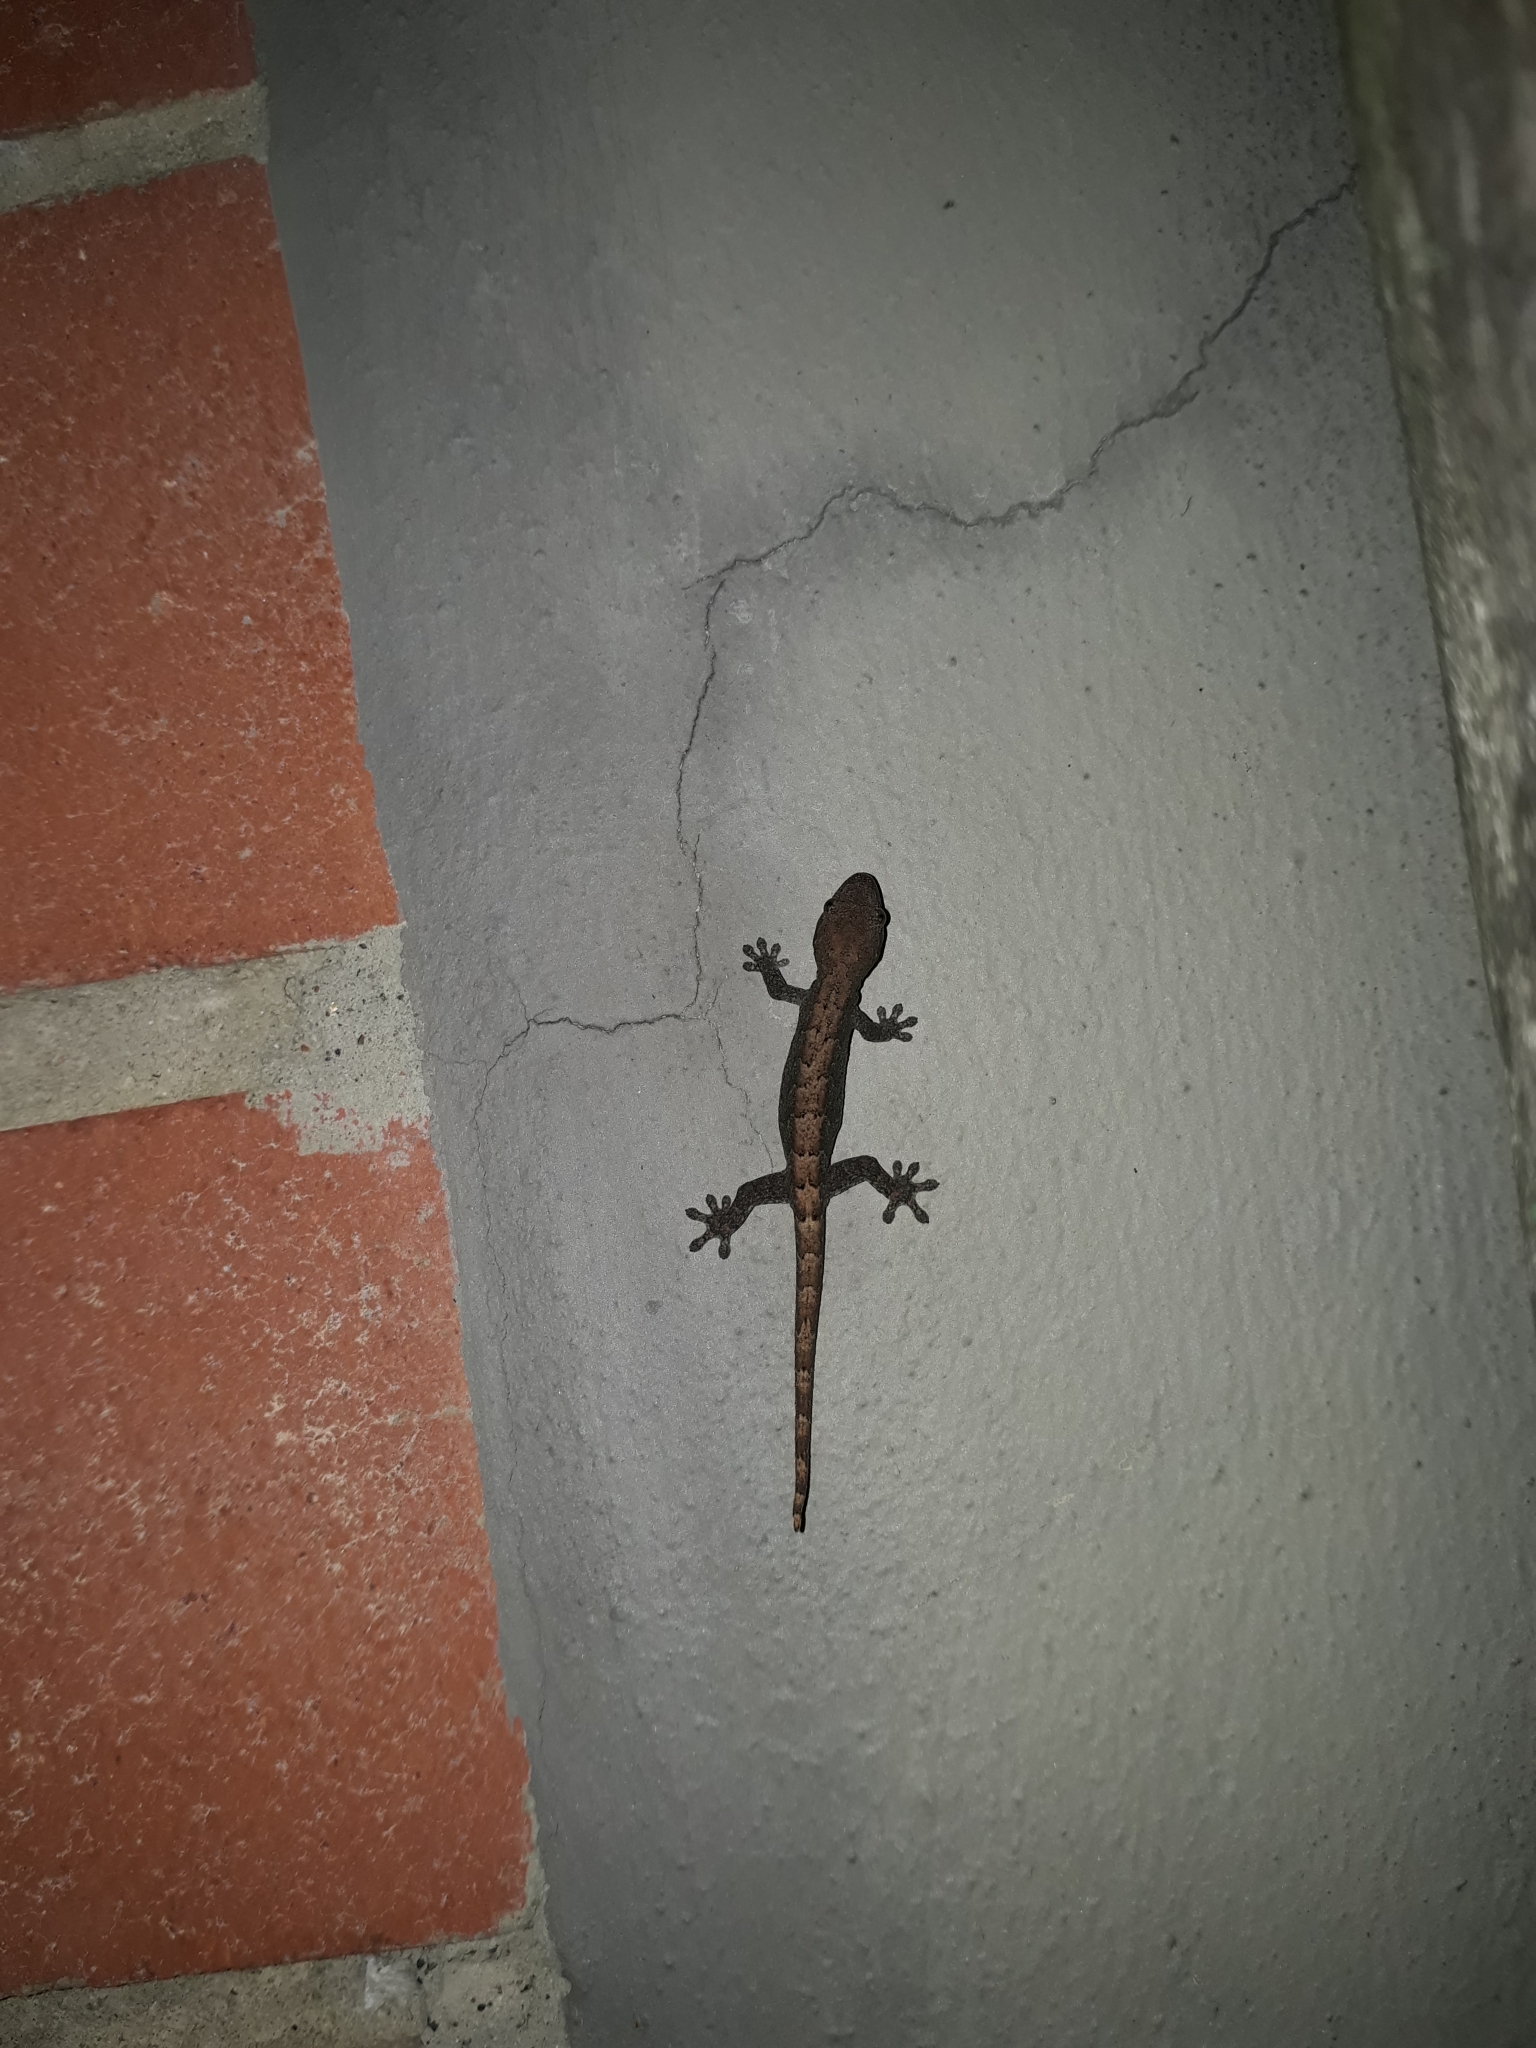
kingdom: Animalia
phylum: Chordata
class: Squamata
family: Gekkonidae
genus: Lepidodactylus
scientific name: Lepidodactylus lugubris
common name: Mourning gecko
